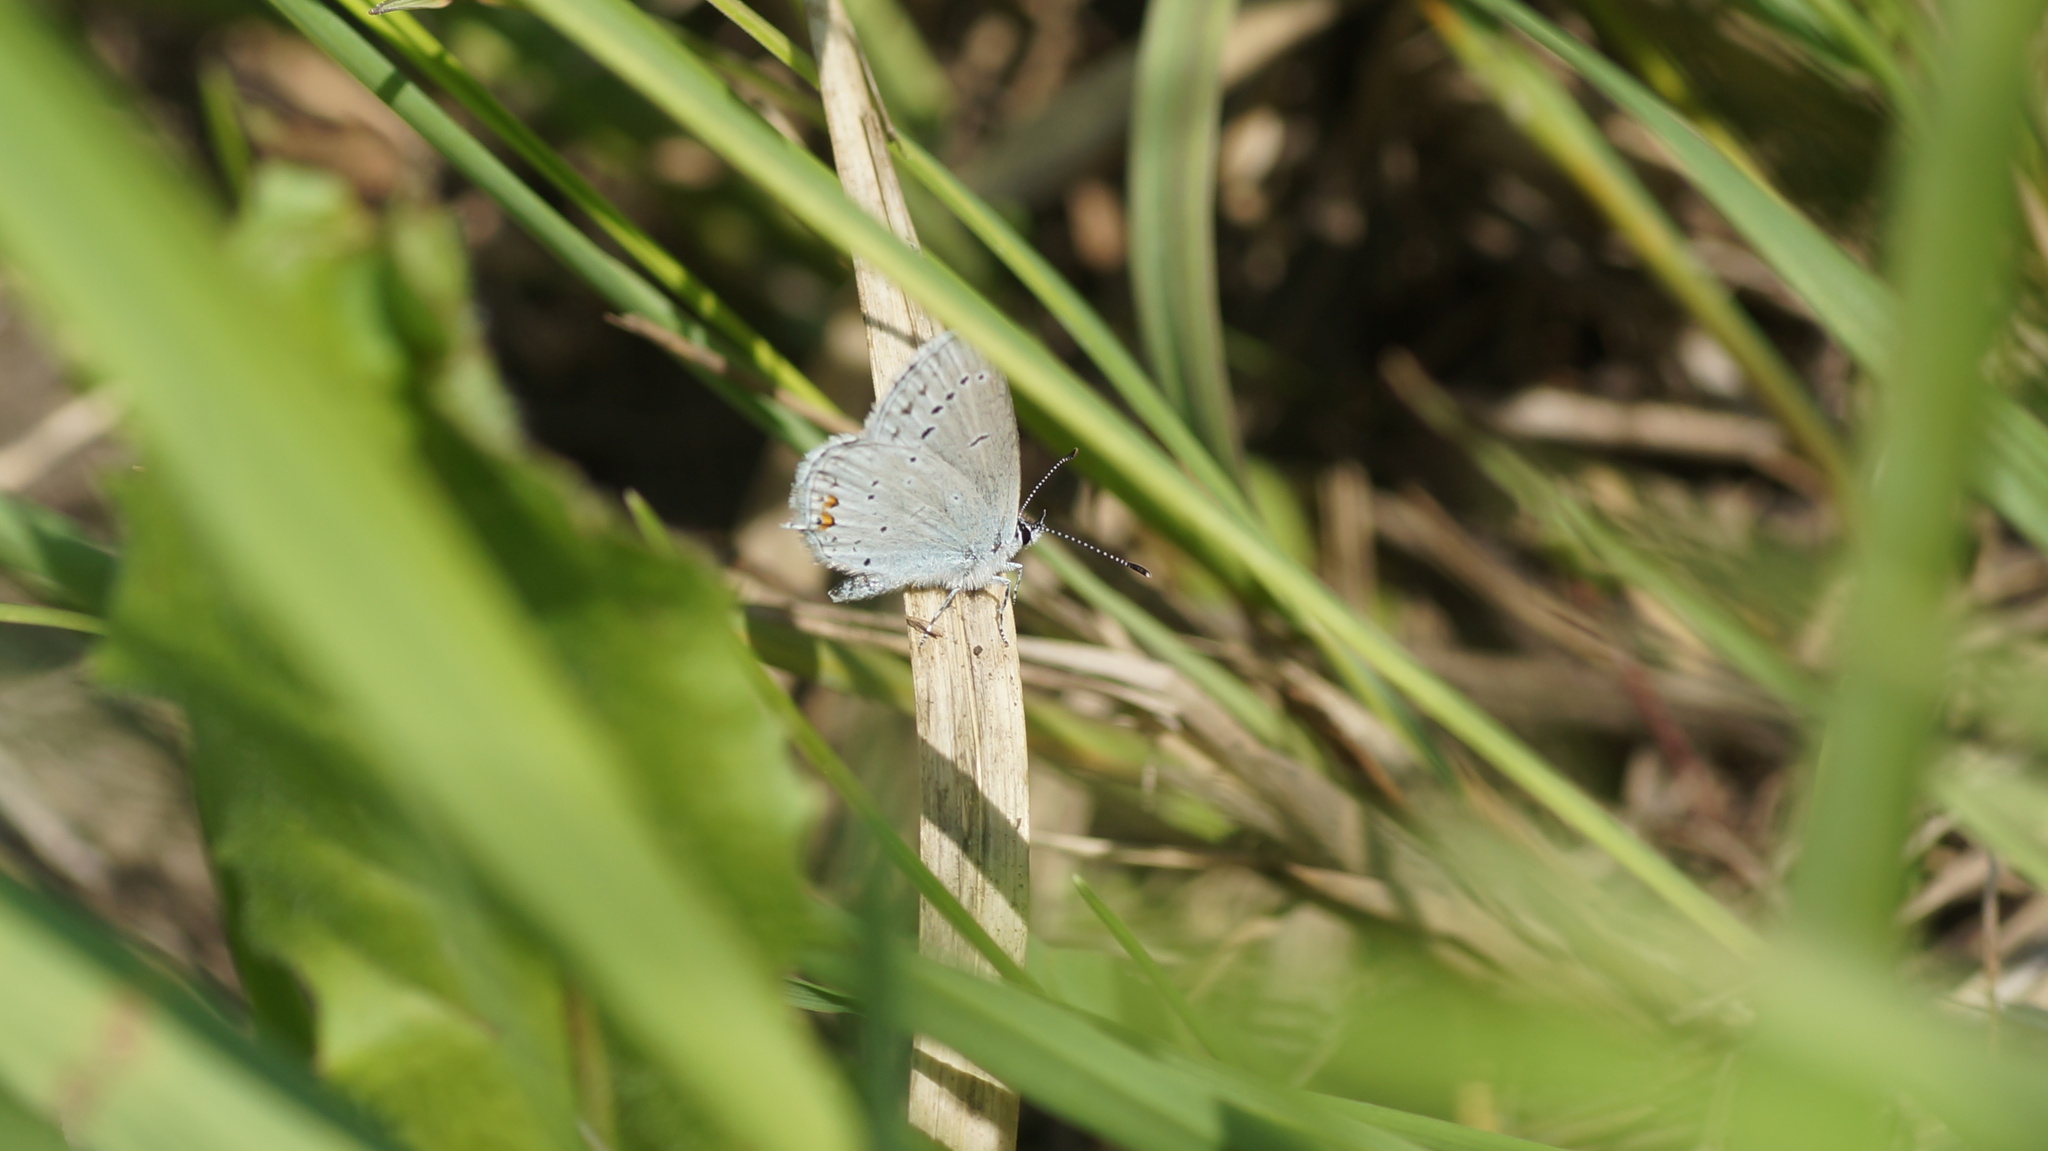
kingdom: Animalia
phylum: Arthropoda
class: Insecta
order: Lepidoptera
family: Lycaenidae
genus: Elkalyce
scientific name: Elkalyce argiades
